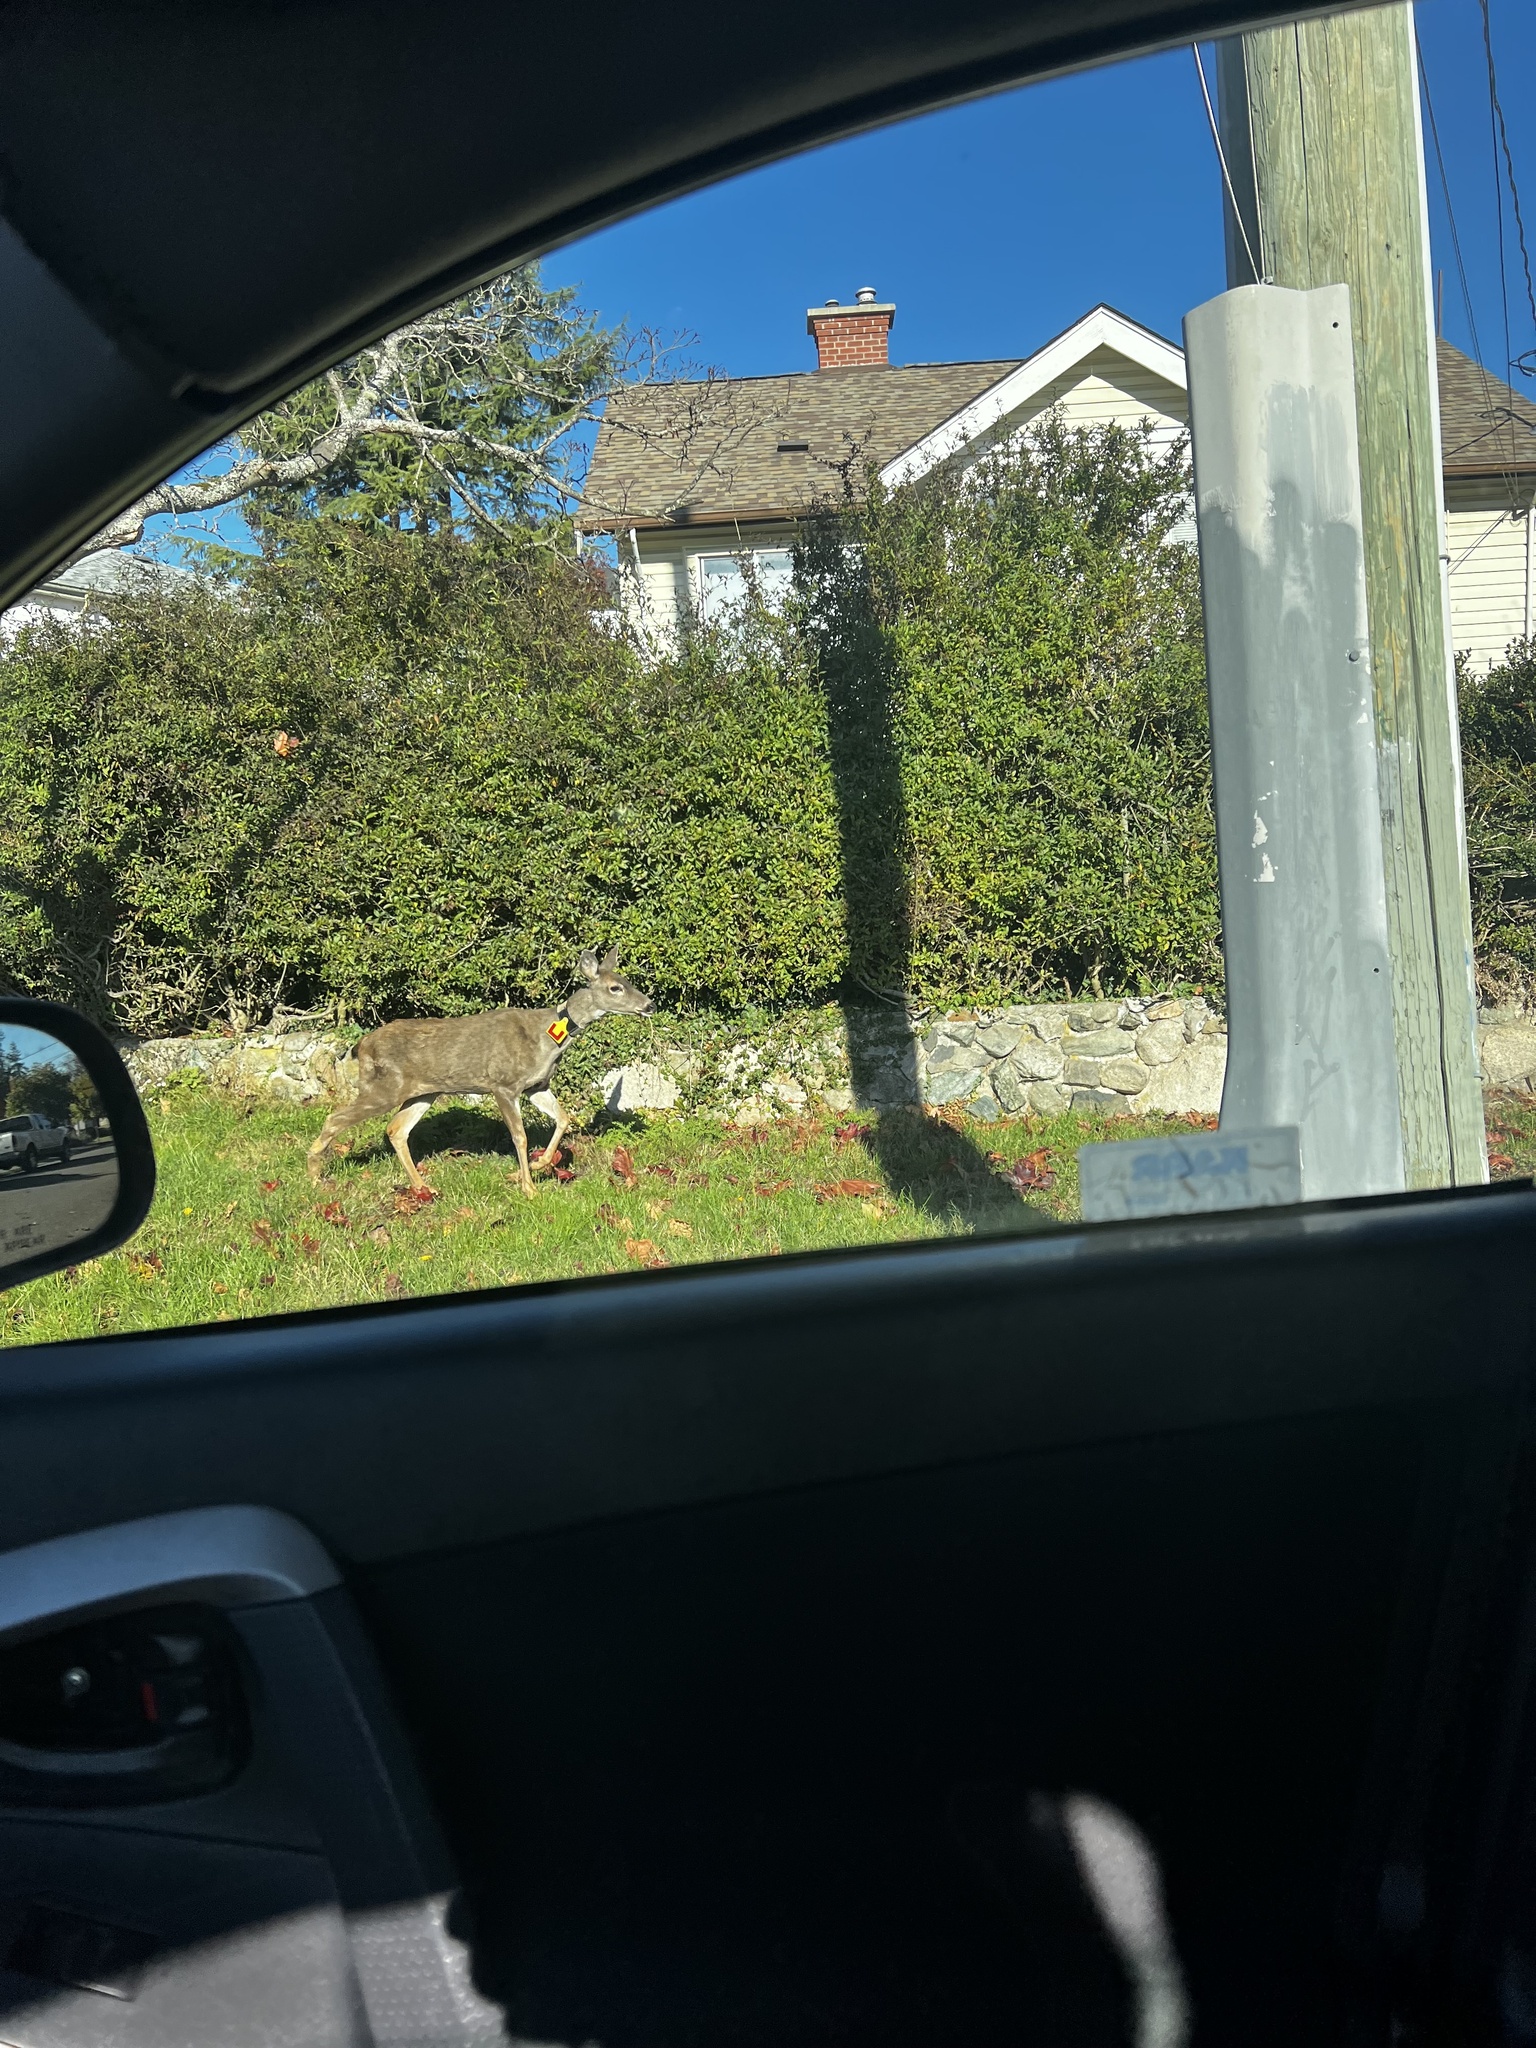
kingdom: Animalia
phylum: Chordata
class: Mammalia
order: Artiodactyla
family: Cervidae
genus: Odocoileus
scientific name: Odocoileus hemionus
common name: Mule deer
